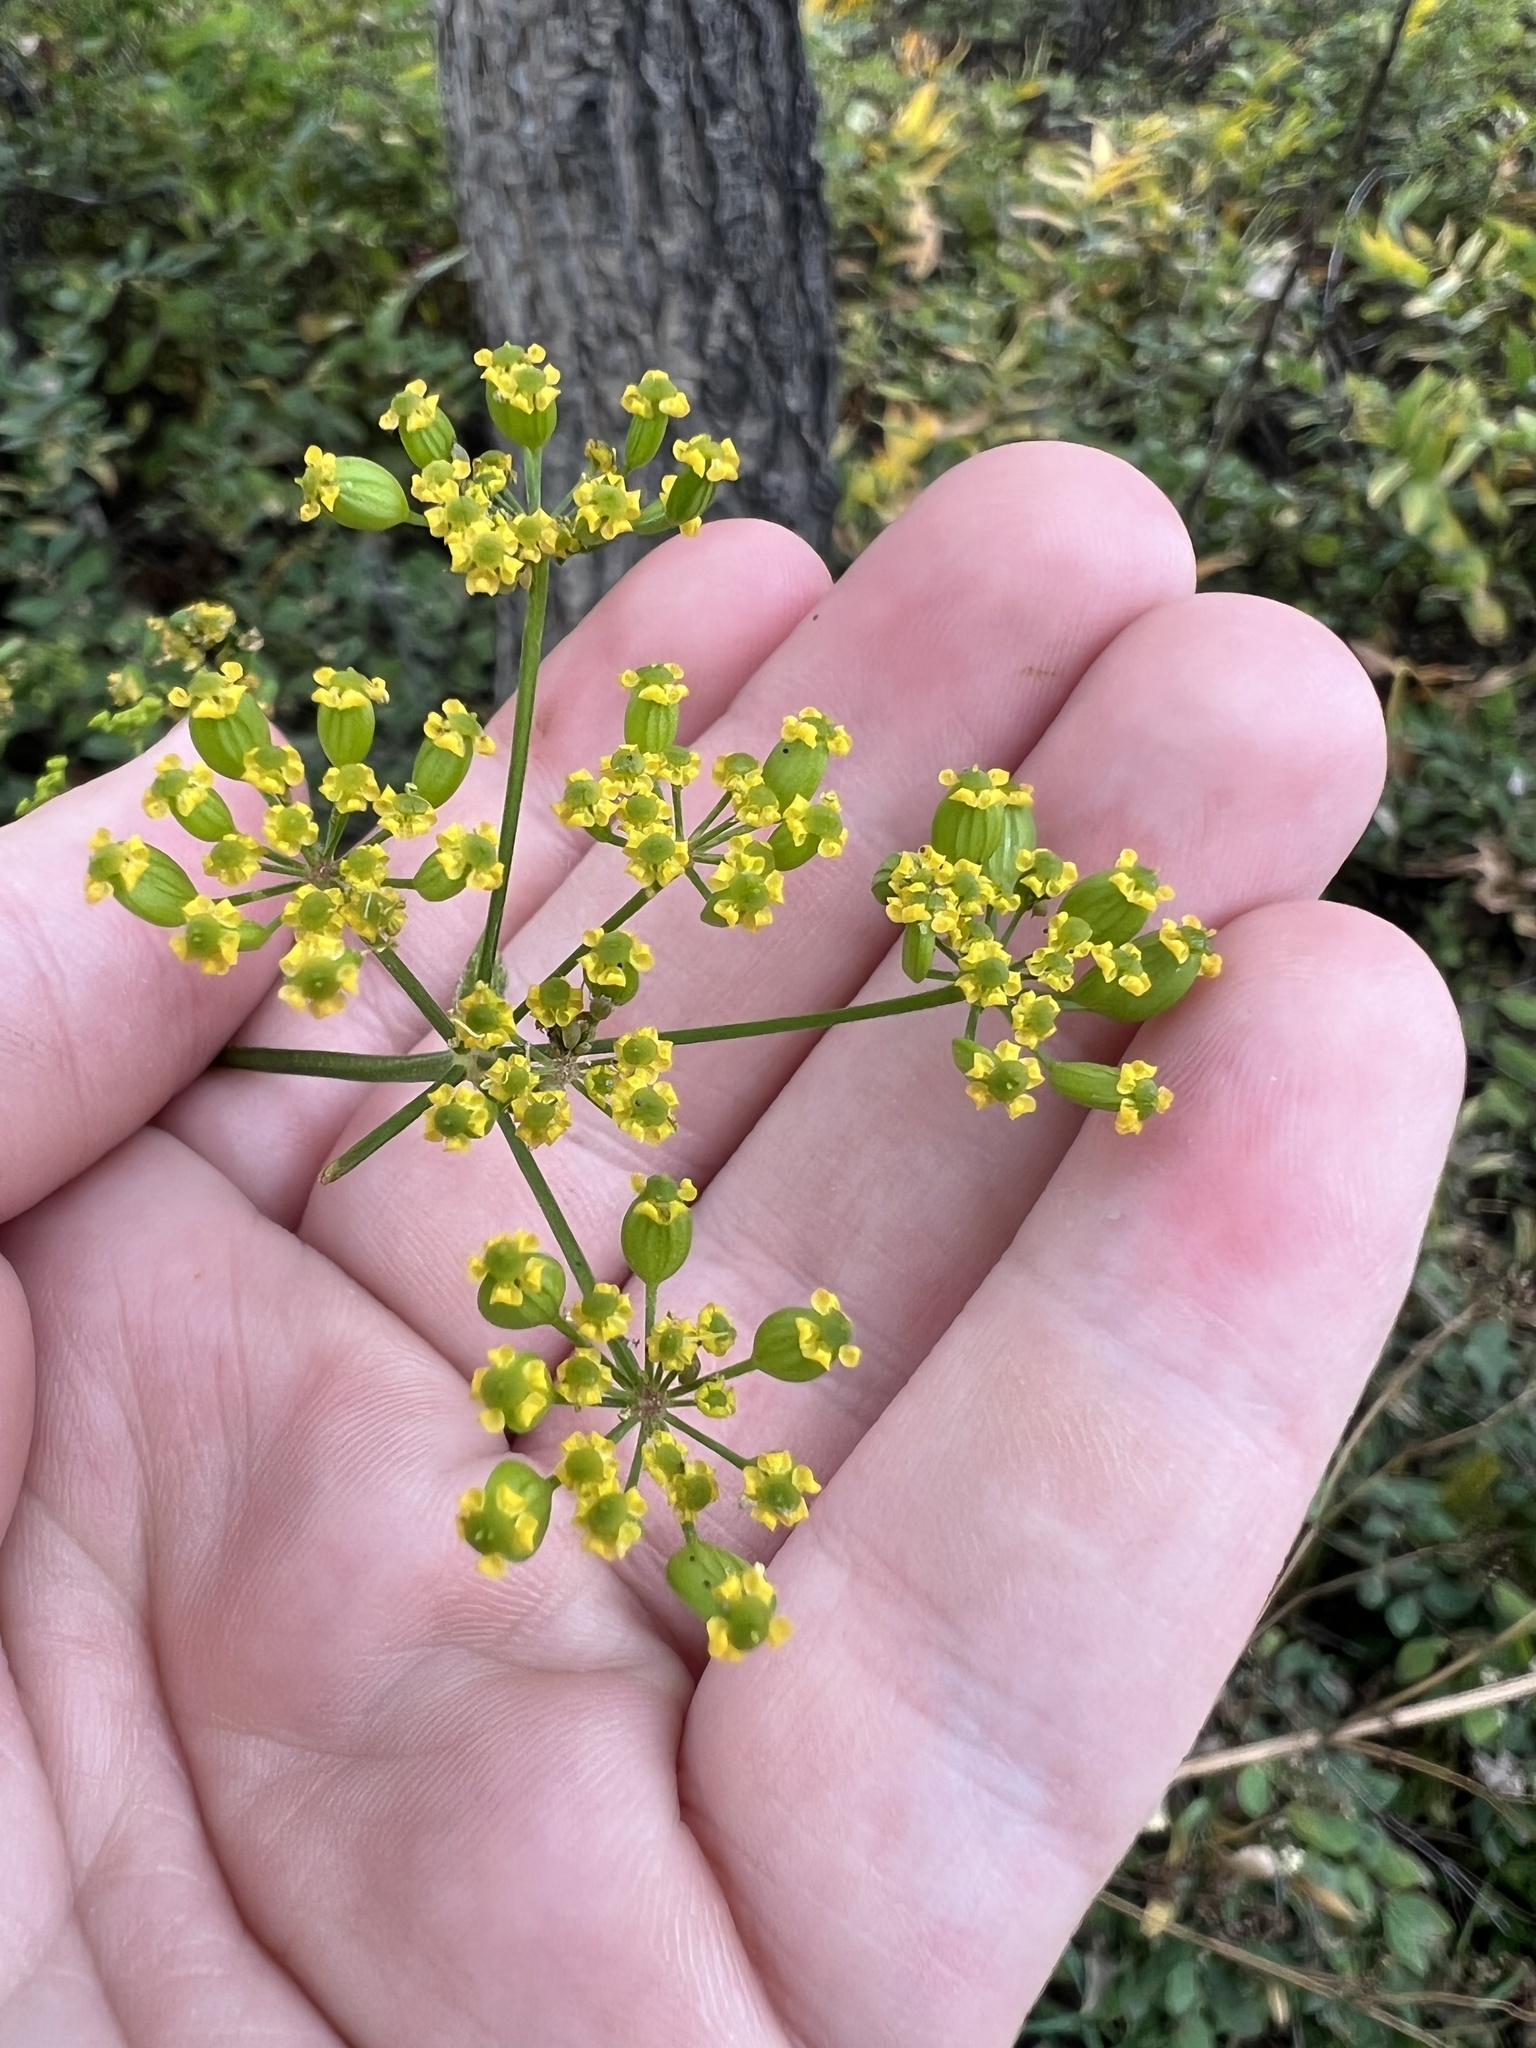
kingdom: Plantae
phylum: Tracheophyta
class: Magnoliopsida
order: Apiales
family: Apiaceae
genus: Pastinaca
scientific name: Pastinaca sativa
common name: Wild parsnip
